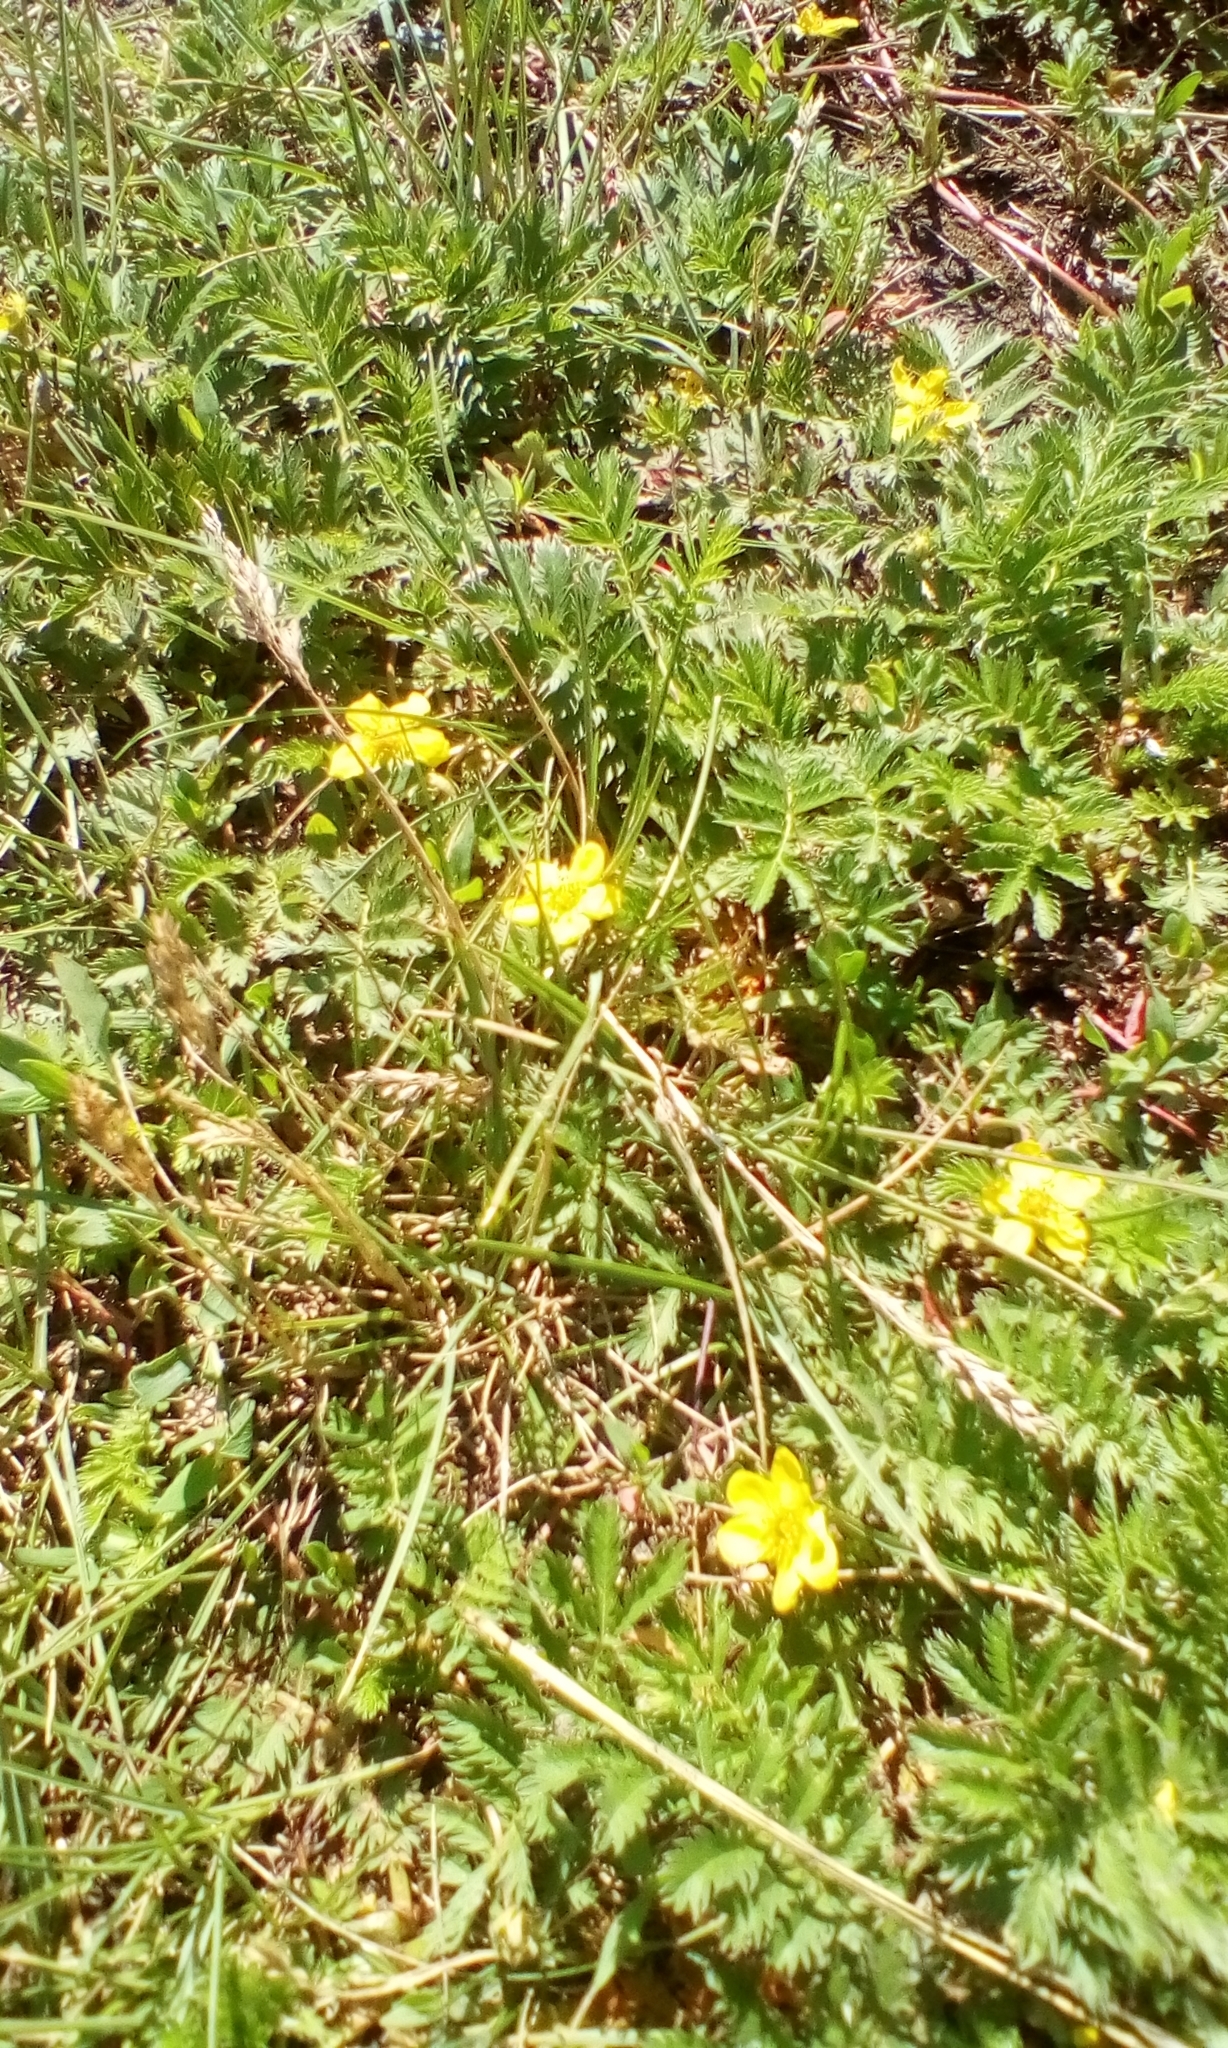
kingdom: Plantae
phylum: Tracheophyta
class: Magnoliopsida
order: Rosales
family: Rosaceae
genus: Argentina
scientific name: Argentina anserina
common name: Common silverweed
